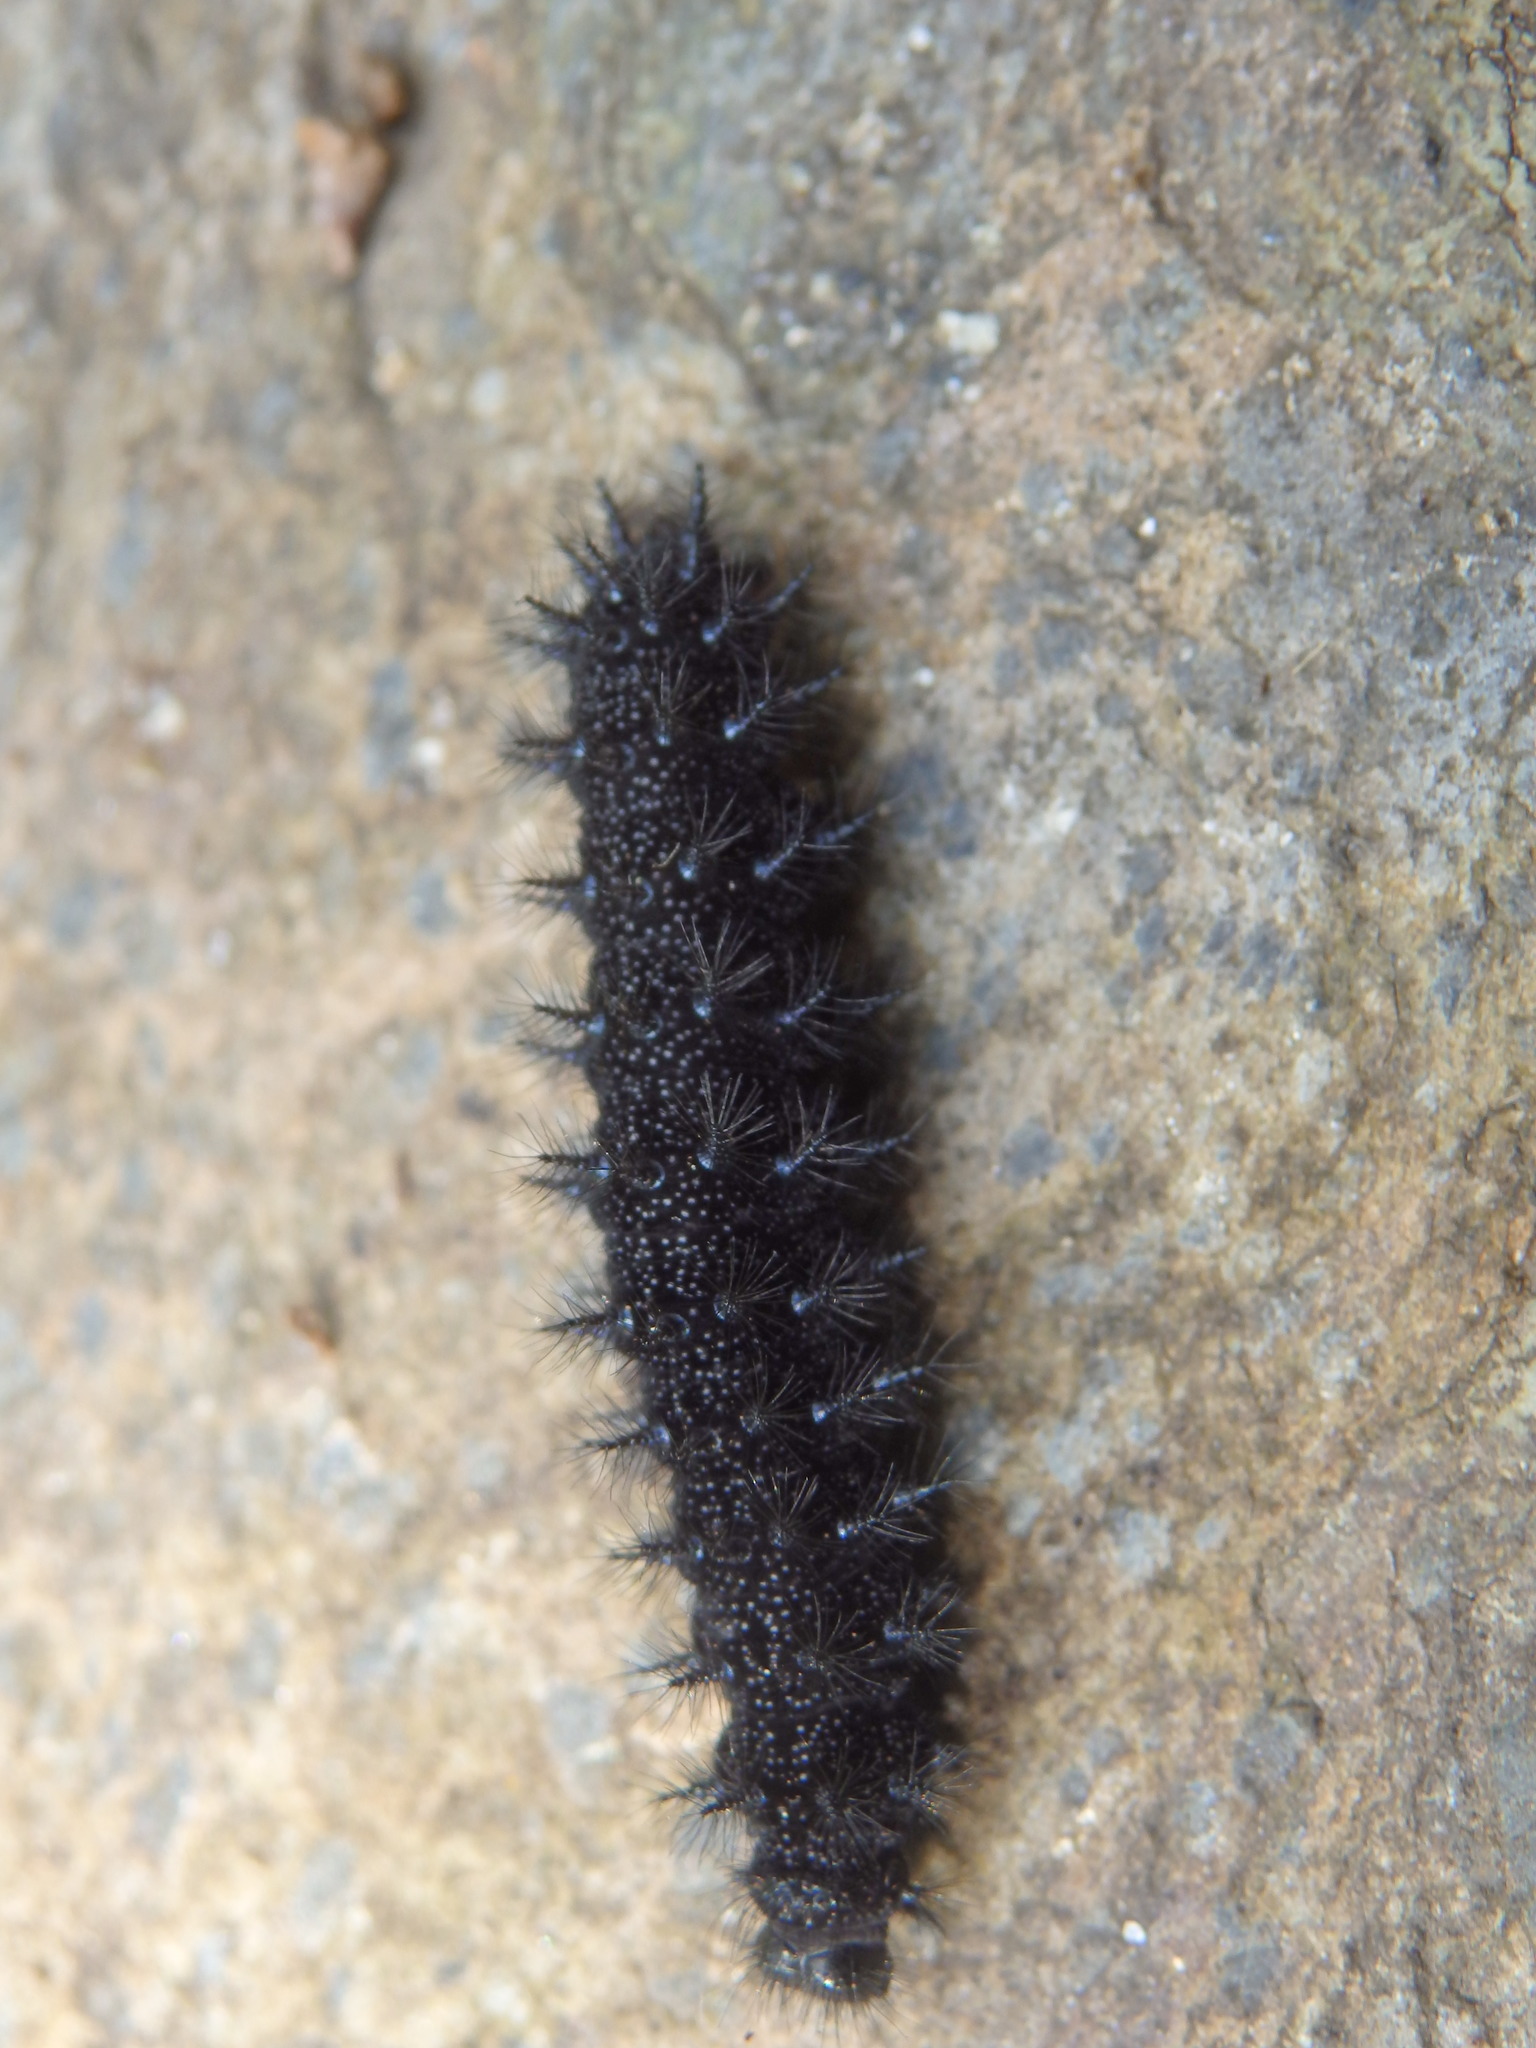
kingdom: Animalia
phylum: Arthropoda
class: Insecta
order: Lepidoptera
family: Nymphalidae
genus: Euphydryas
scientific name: Euphydryas aurinia
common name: Marsh fritillary
